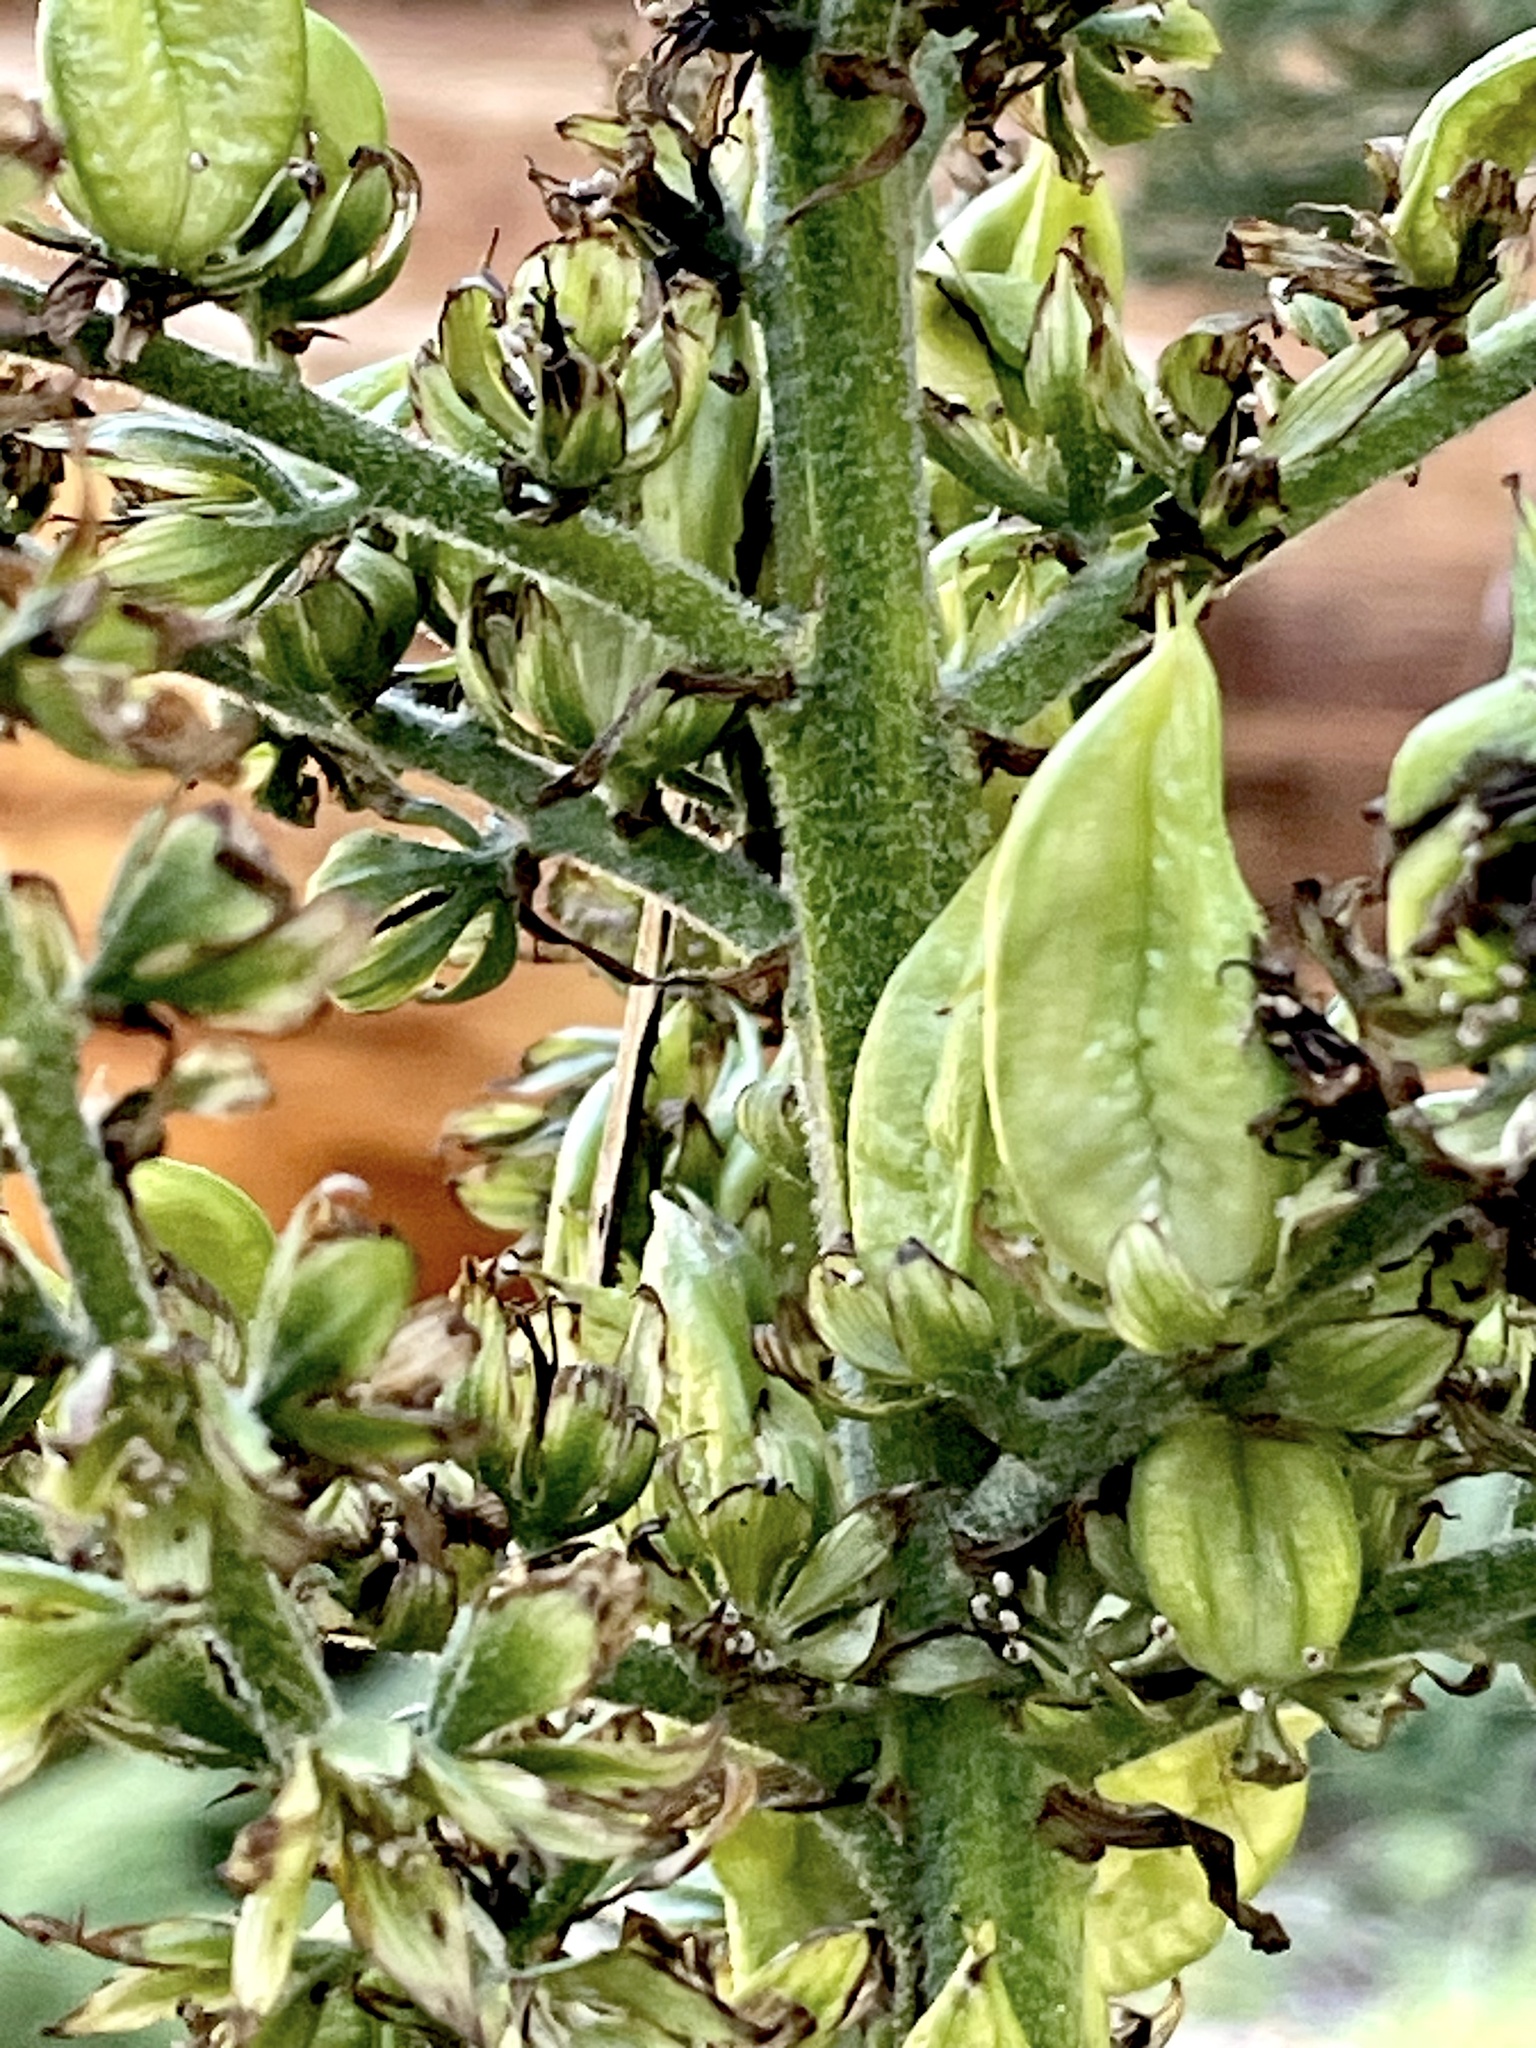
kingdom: Plantae
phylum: Tracheophyta
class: Liliopsida
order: Liliales
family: Melanthiaceae
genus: Veratrum
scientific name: Veratrum californicum
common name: California veratrum
